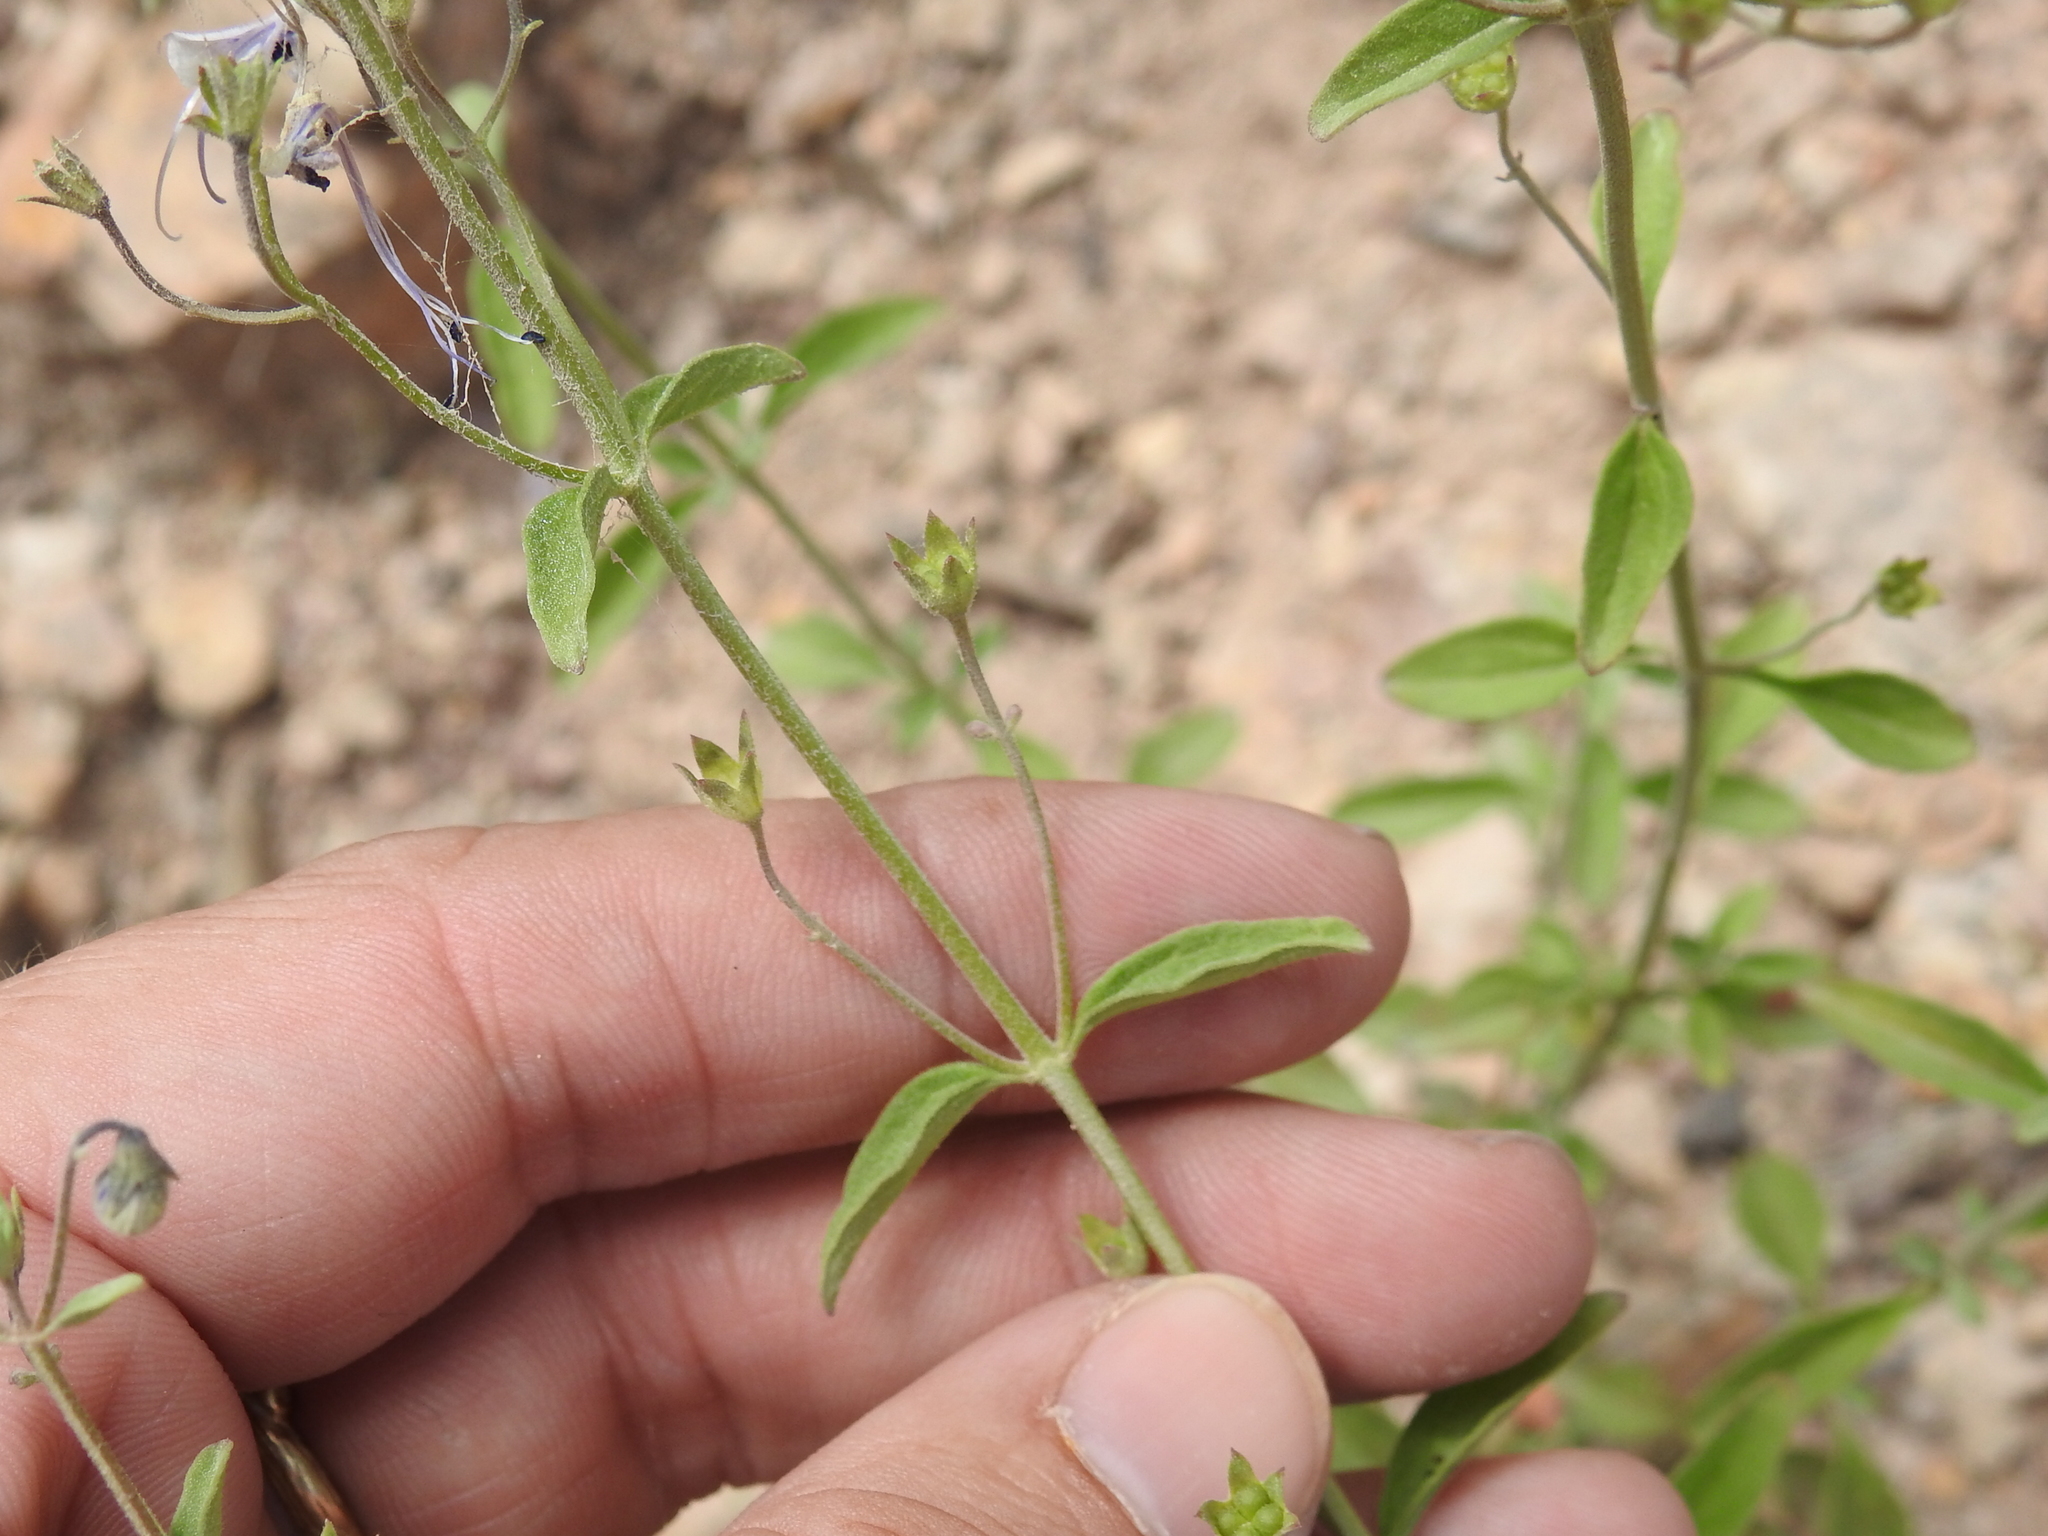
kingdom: Plantae
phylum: Tracheophyta
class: Magnoliopsida
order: Lamiales
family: Lamiaceae
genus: Trichostema
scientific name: Trichostema arizonicum
